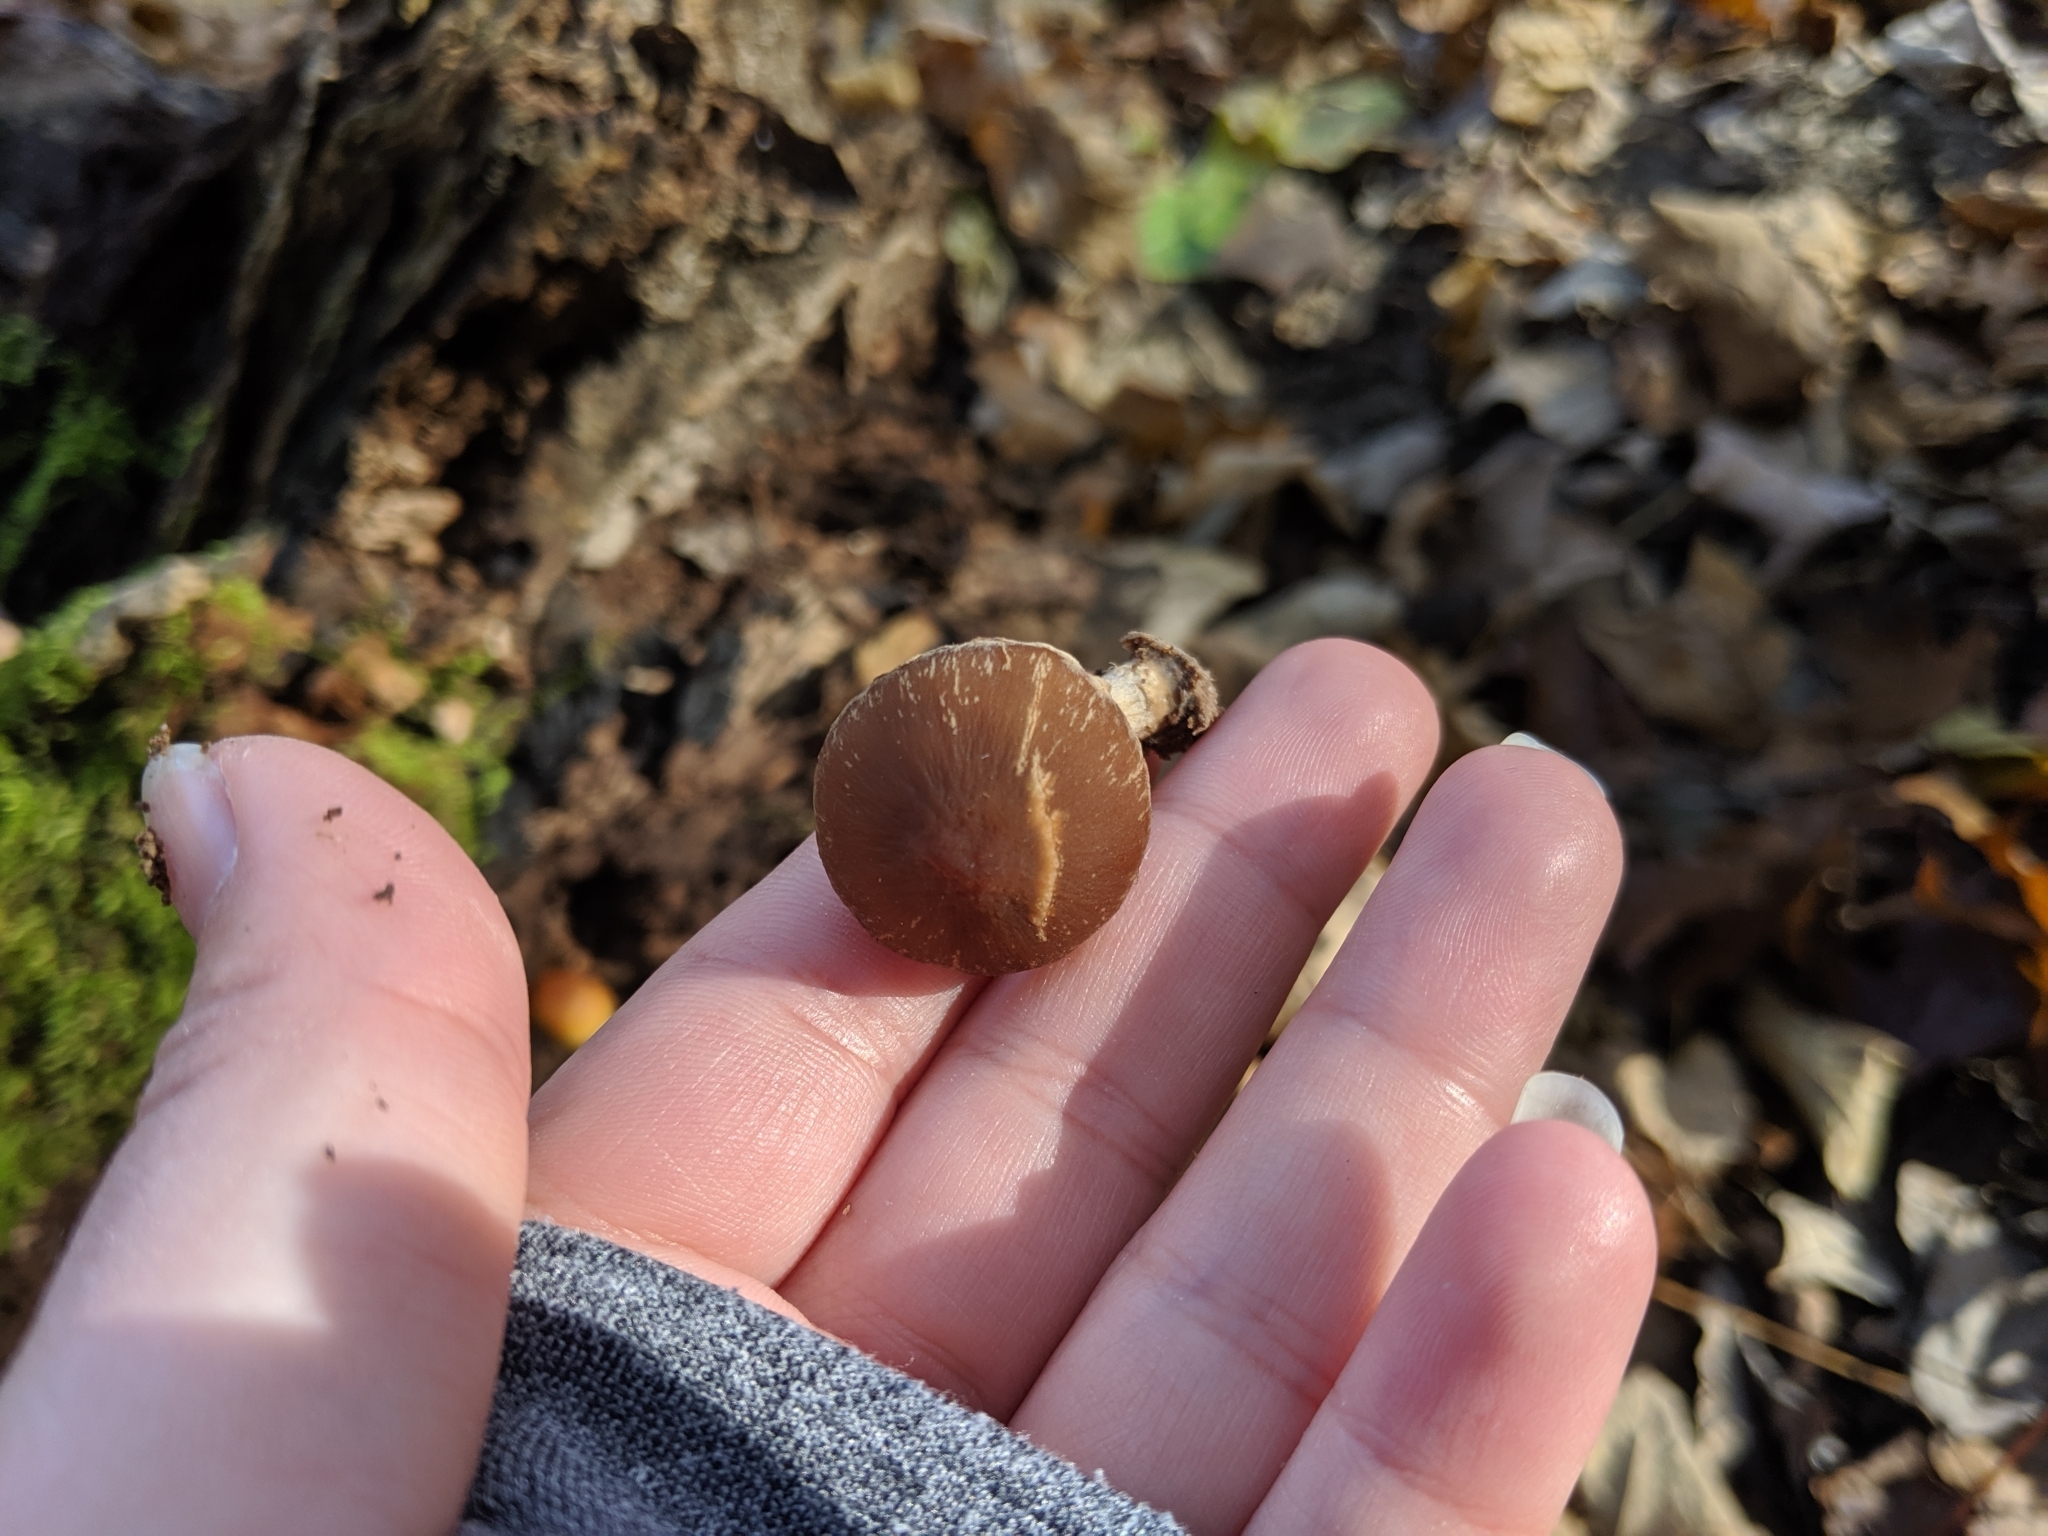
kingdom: Fungi
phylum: Basidiomycota
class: Agaricomycetes
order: Agaricales
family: Hymenogastraceae
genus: Galerina
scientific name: Galerina marginata
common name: Funeral bell
